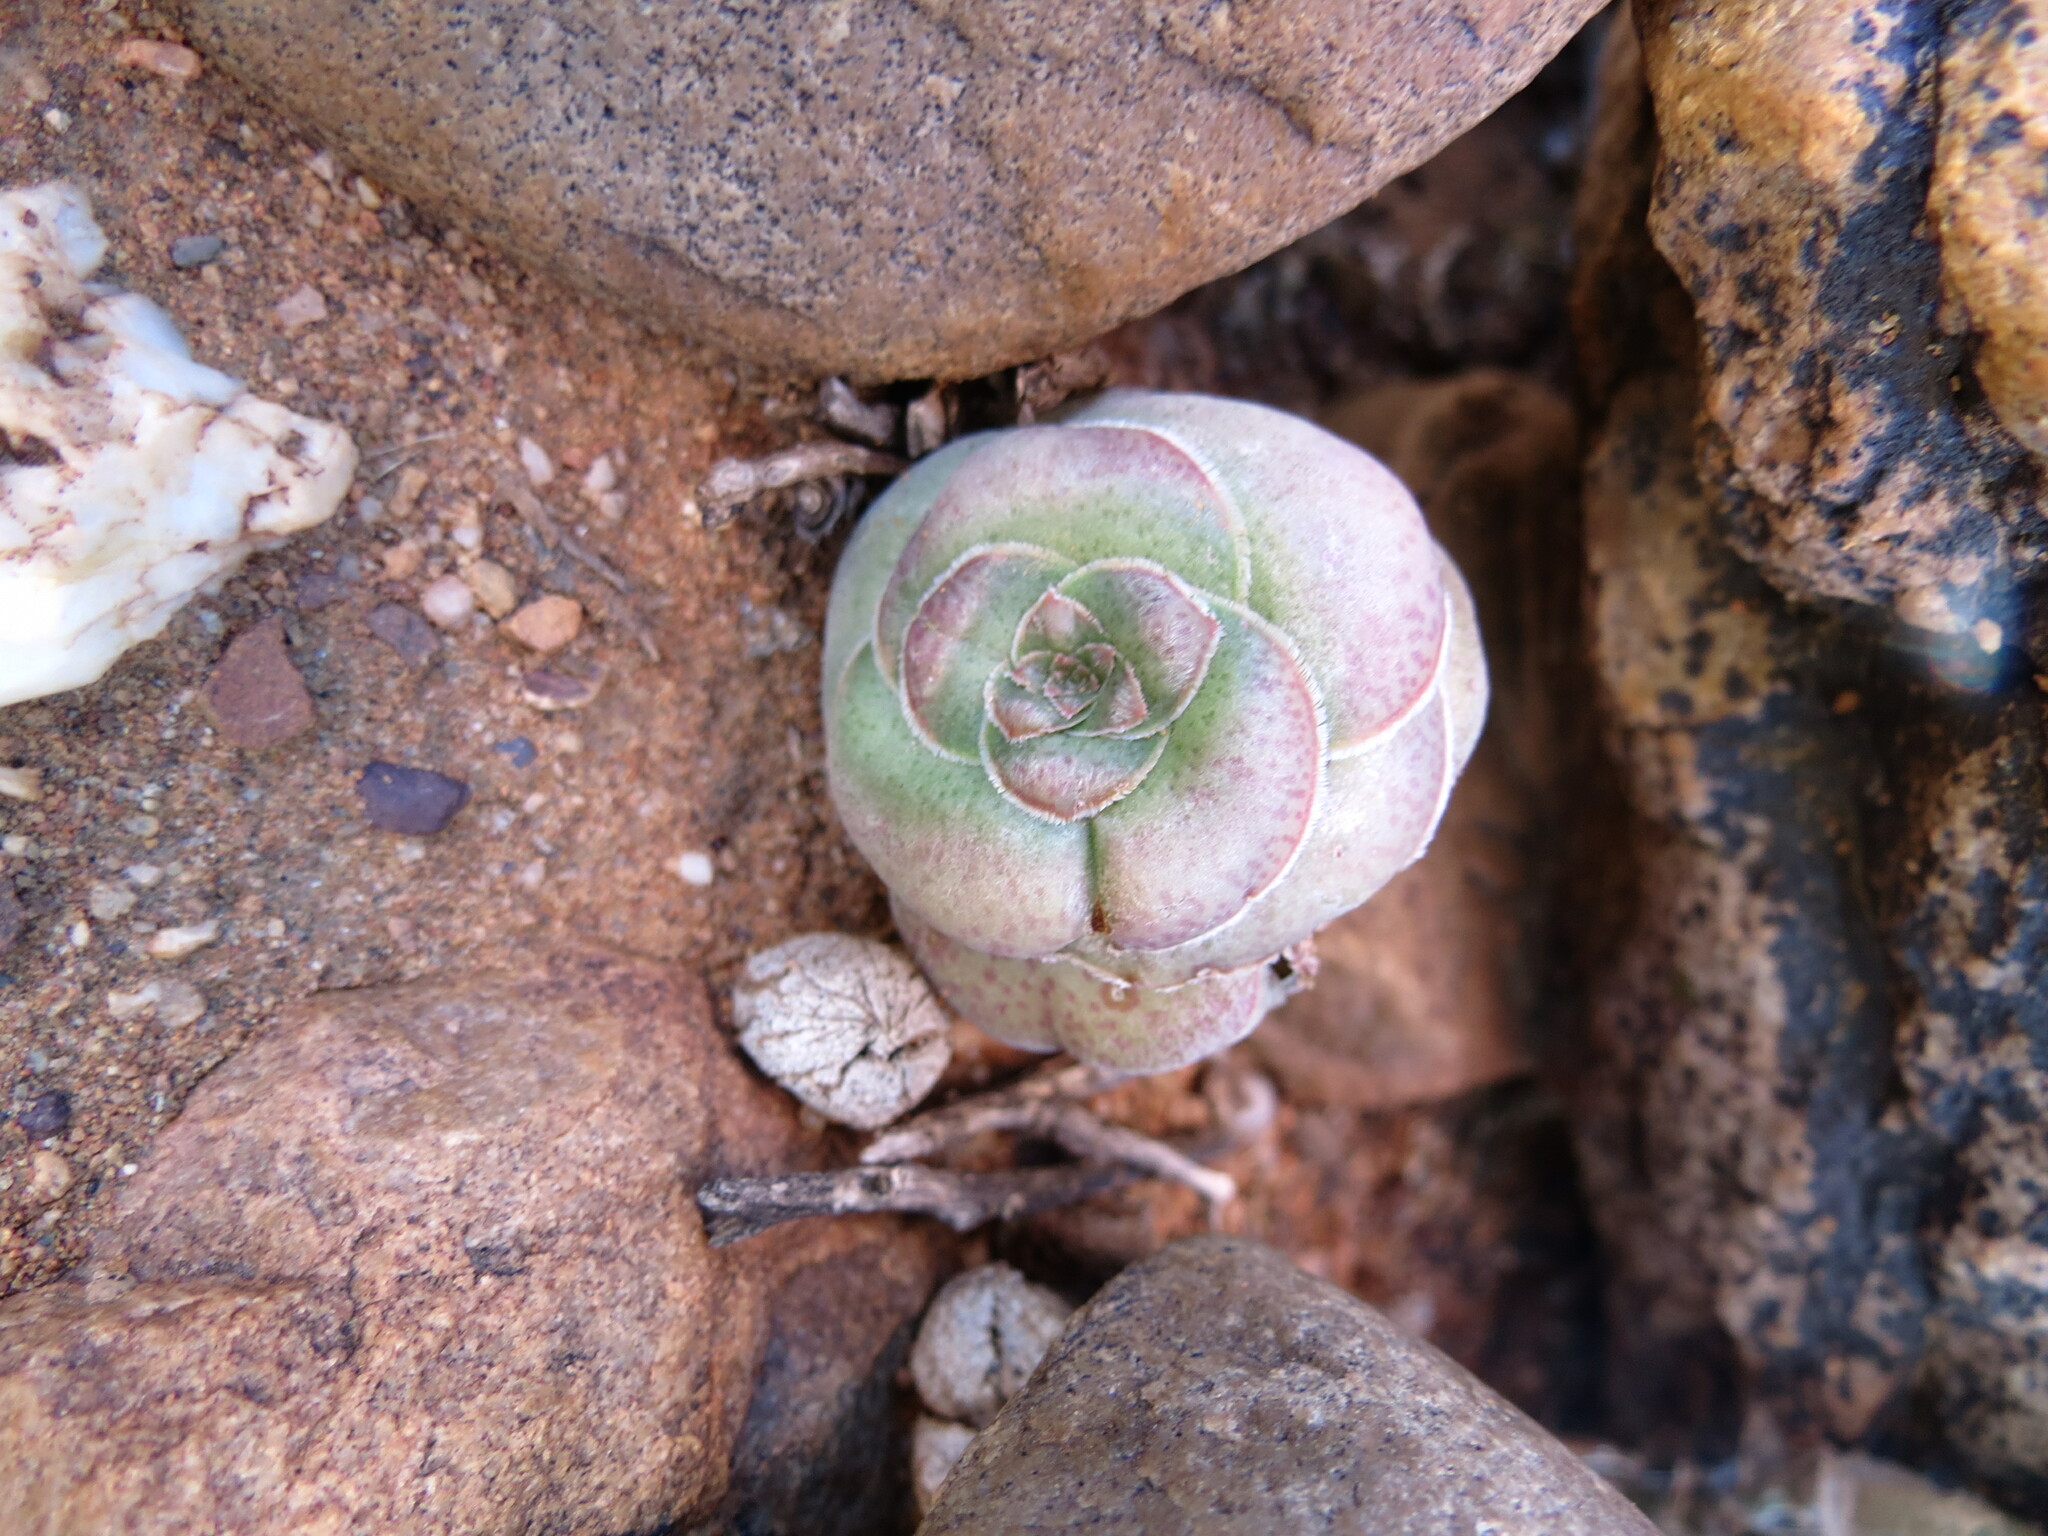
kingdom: Plantae
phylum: Tracheophyta
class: Magnoliopsida
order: Saxifragales
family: Crassulaceae
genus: Crassula
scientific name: Crassula hemisphaerica
